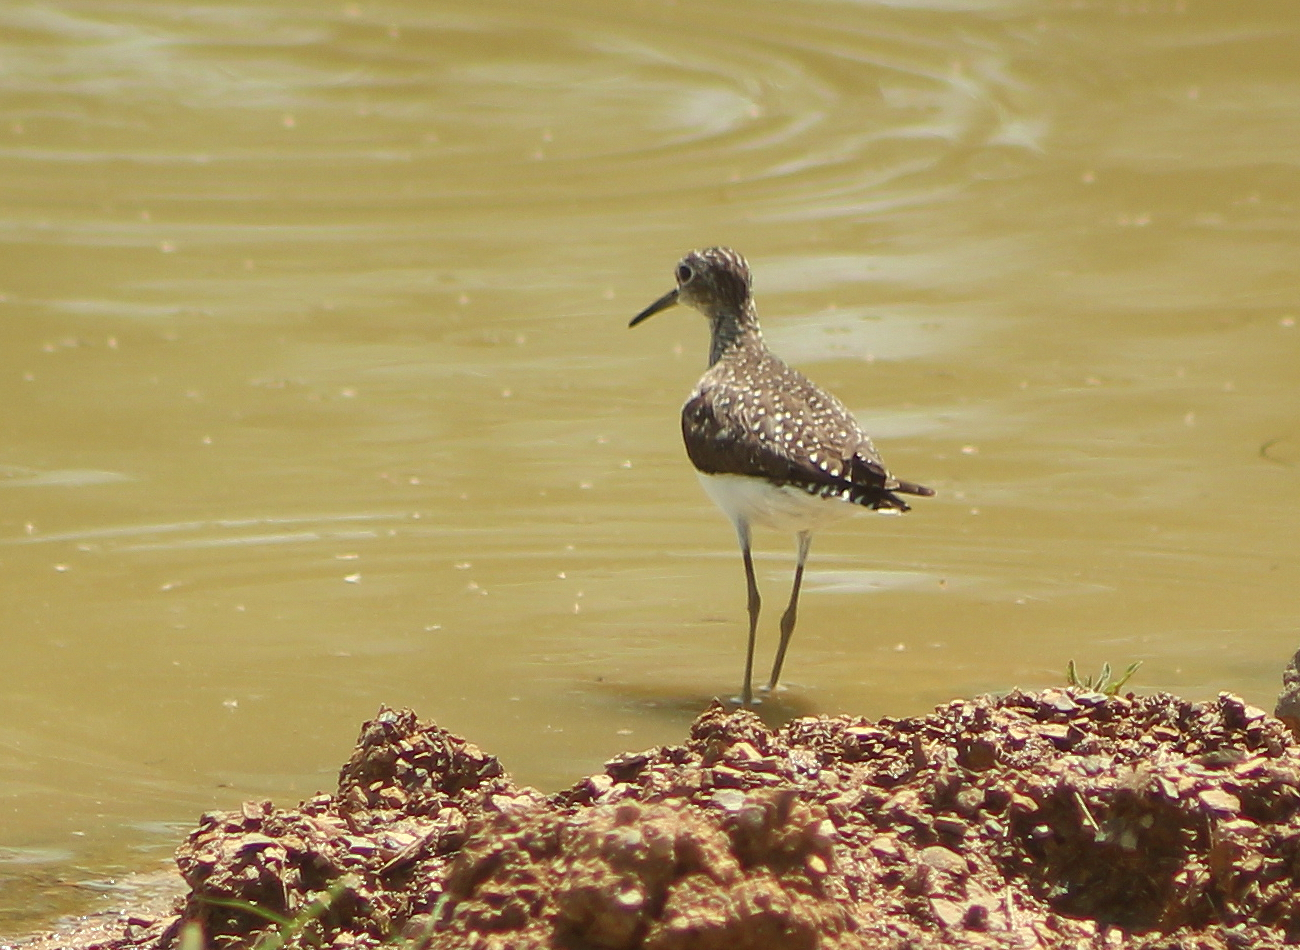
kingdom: Animalia
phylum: Chordata
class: Aves
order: Charadriiformes
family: Scolopacidae
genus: Tringa
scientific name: Tringa solitaria
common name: Solitary sandpiper
